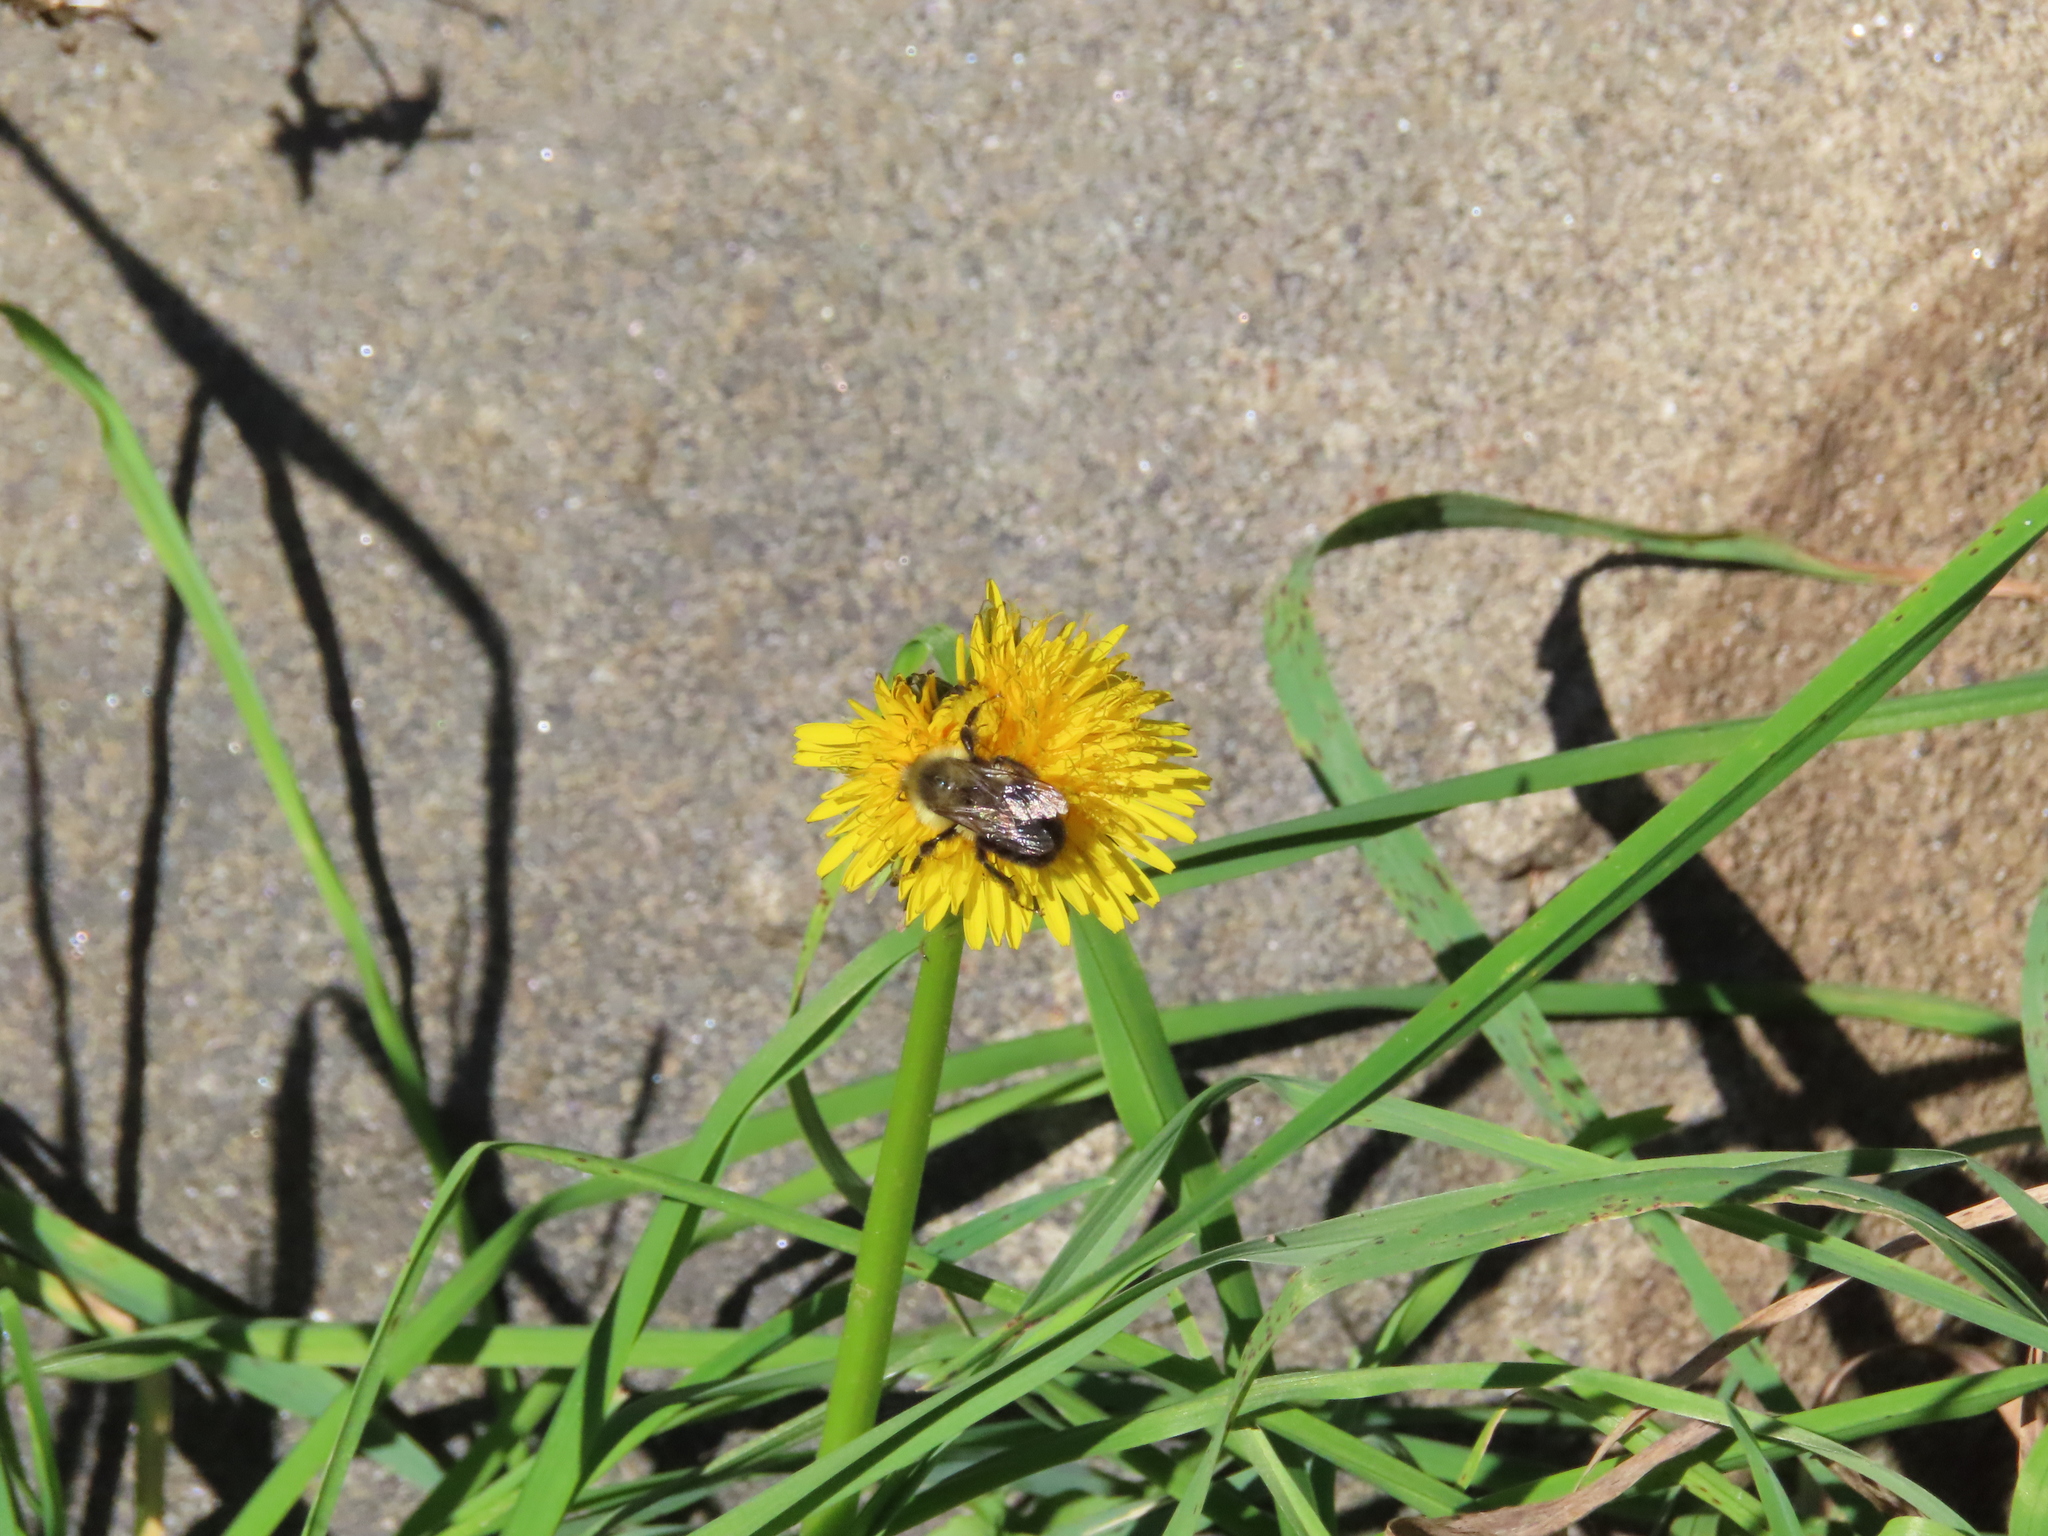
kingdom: Animalia
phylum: Arthropoda
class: Insecta
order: Hymenoptera
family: Apidae
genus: Bombus
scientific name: Bombus impatiens
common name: Common eastern bumble bee
